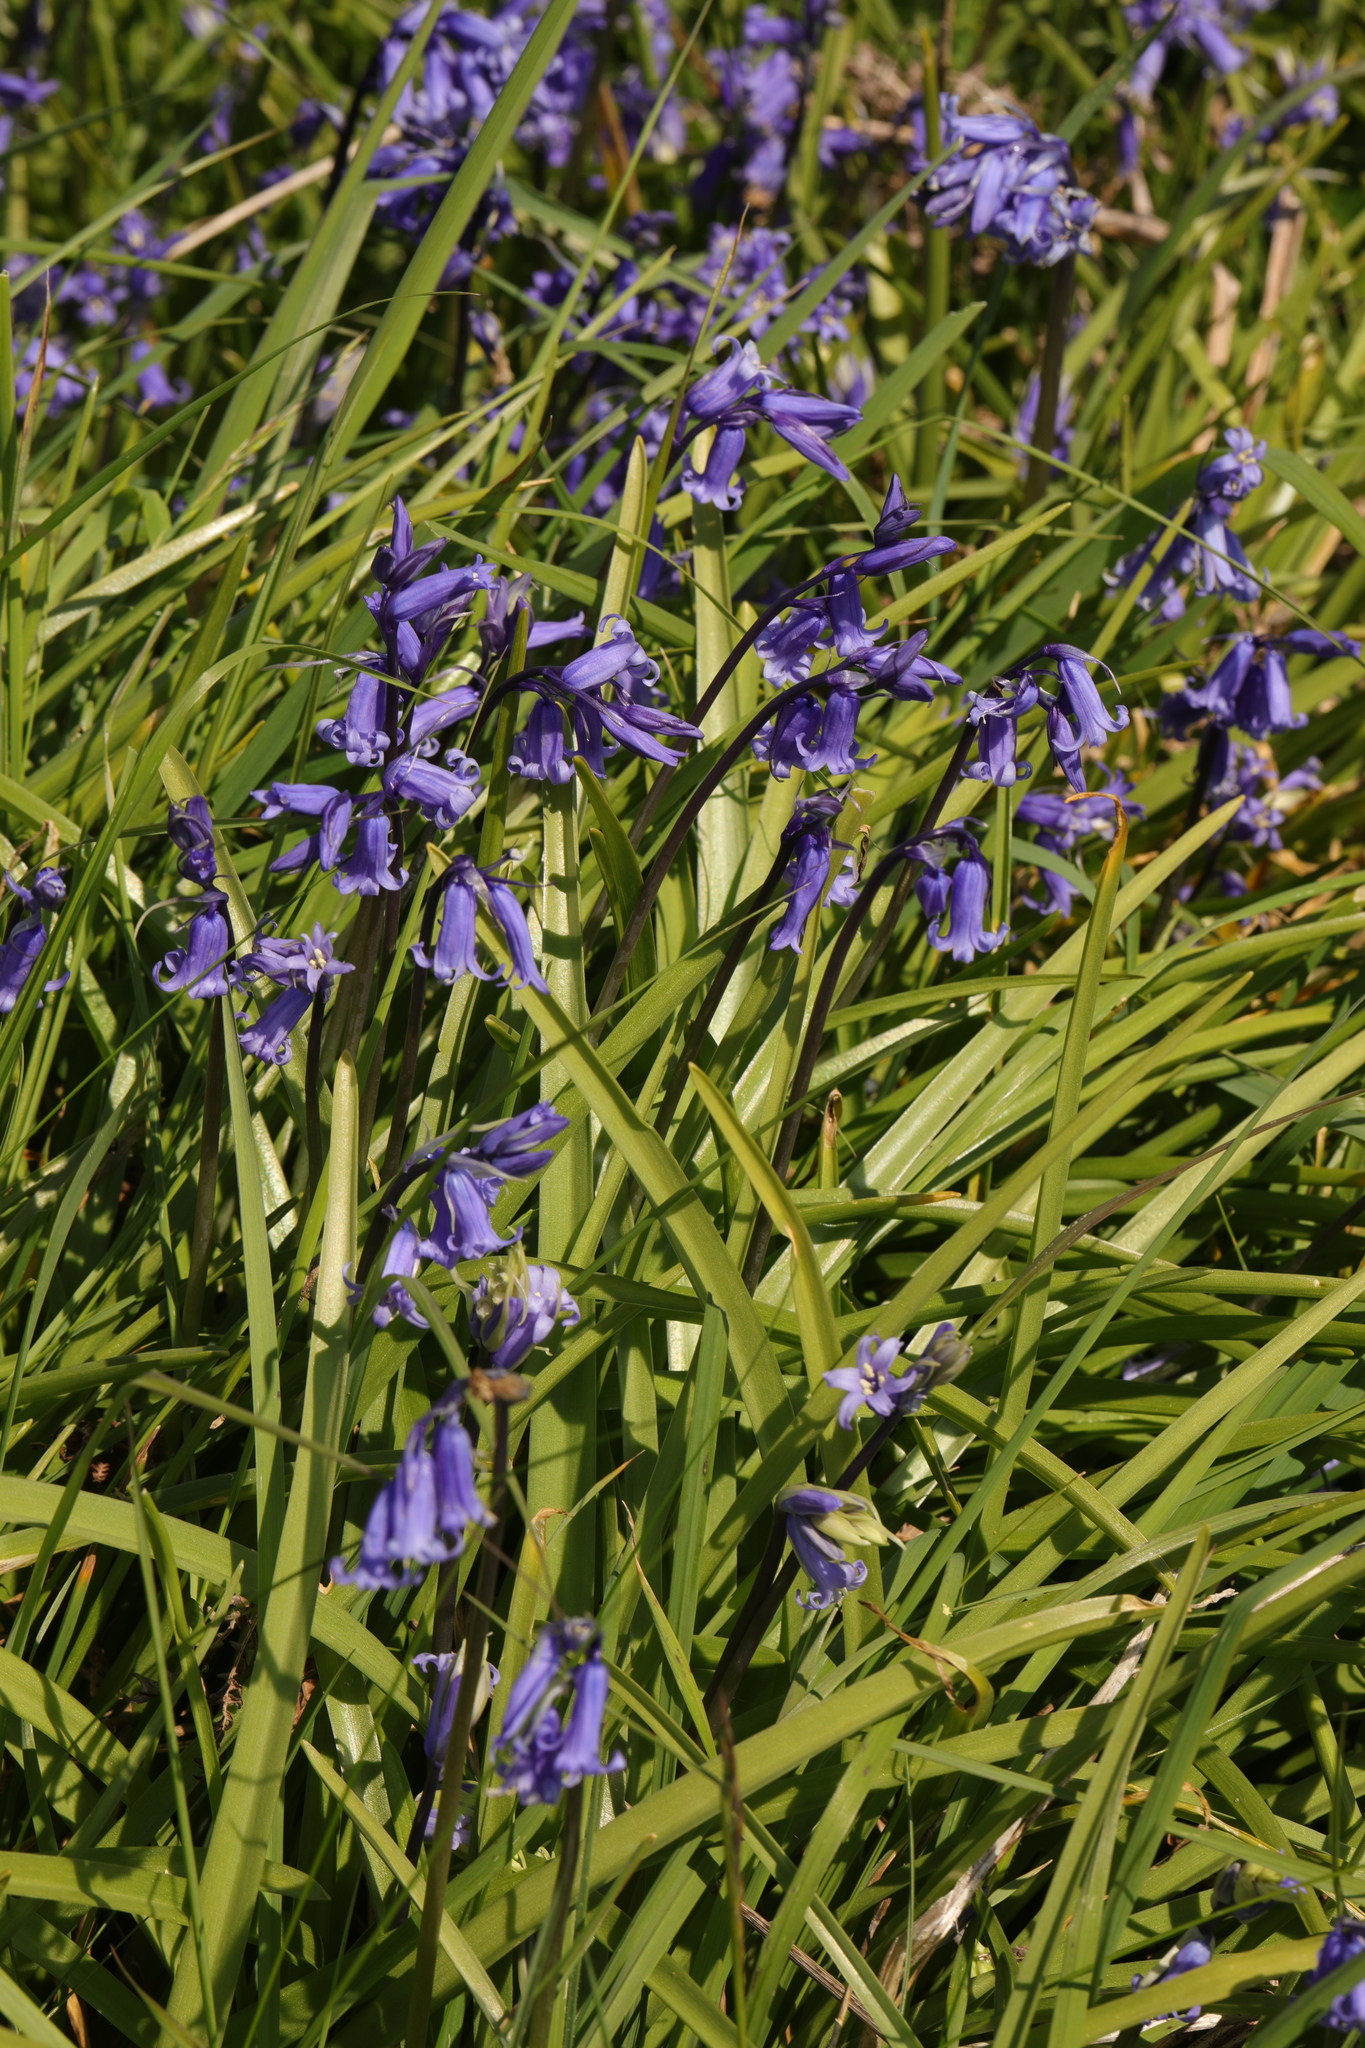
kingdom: Plantae
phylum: Tracheophyta
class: Liliopsida
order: Asparagales
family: Asparagaceae
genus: Hyacinthoides
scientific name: Hyacinthoides non-scripta
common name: Bluebell
